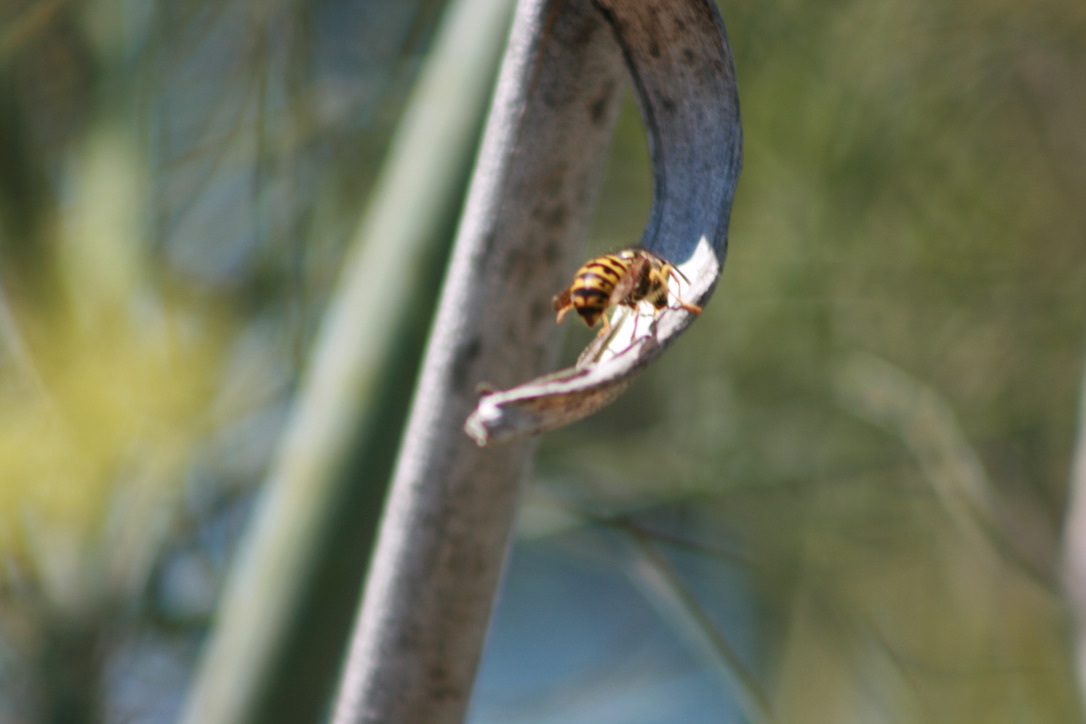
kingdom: Animalia
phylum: Arthropoda
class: Insecta
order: Hymenoptera
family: Vespidae
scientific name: Vespidae
